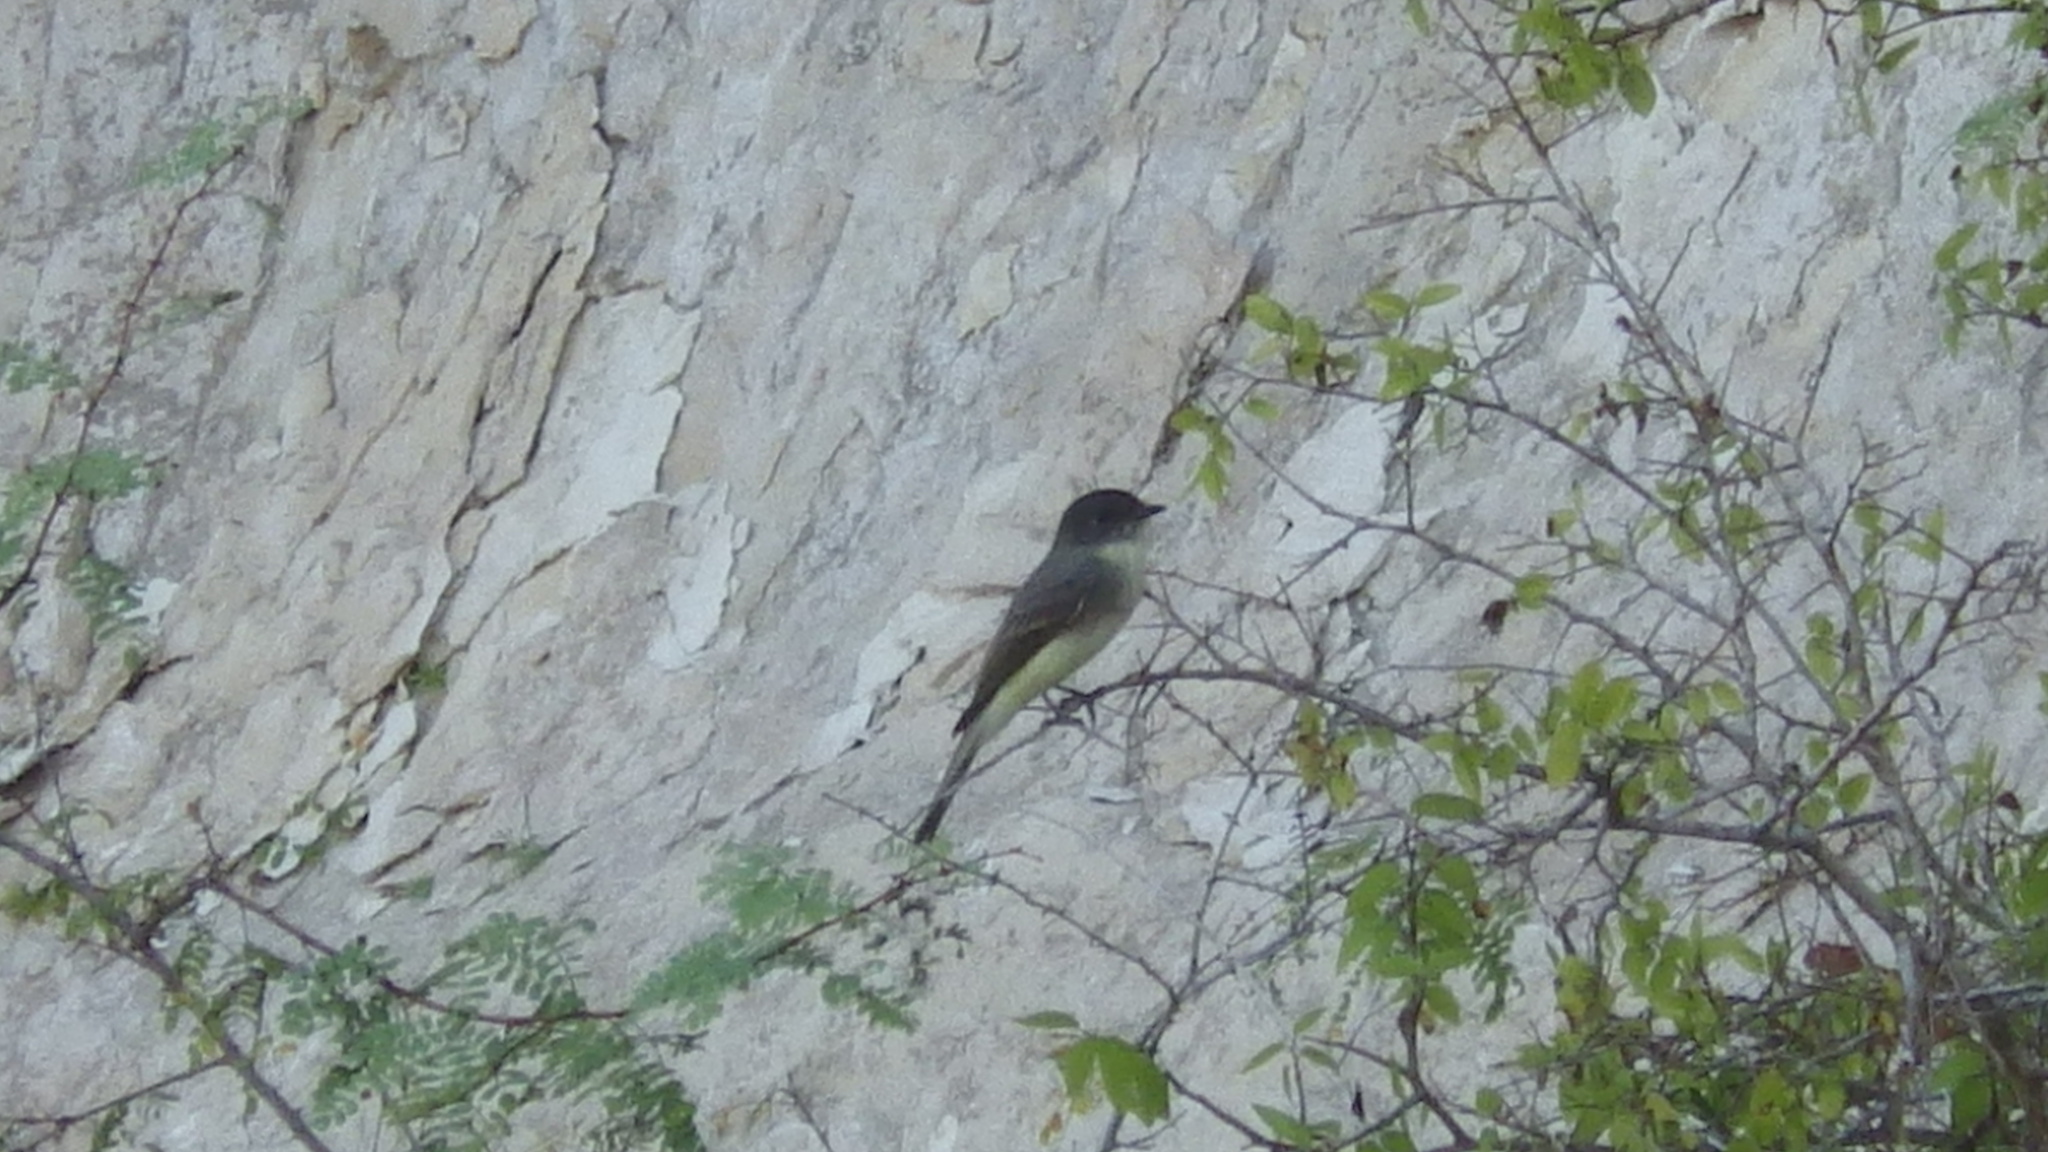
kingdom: Animalia
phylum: Chordata
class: Aves
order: Passeriformes
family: Tyrannidae
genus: Sayornis
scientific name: Sayornis phoebe
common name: Eastern phoebe
